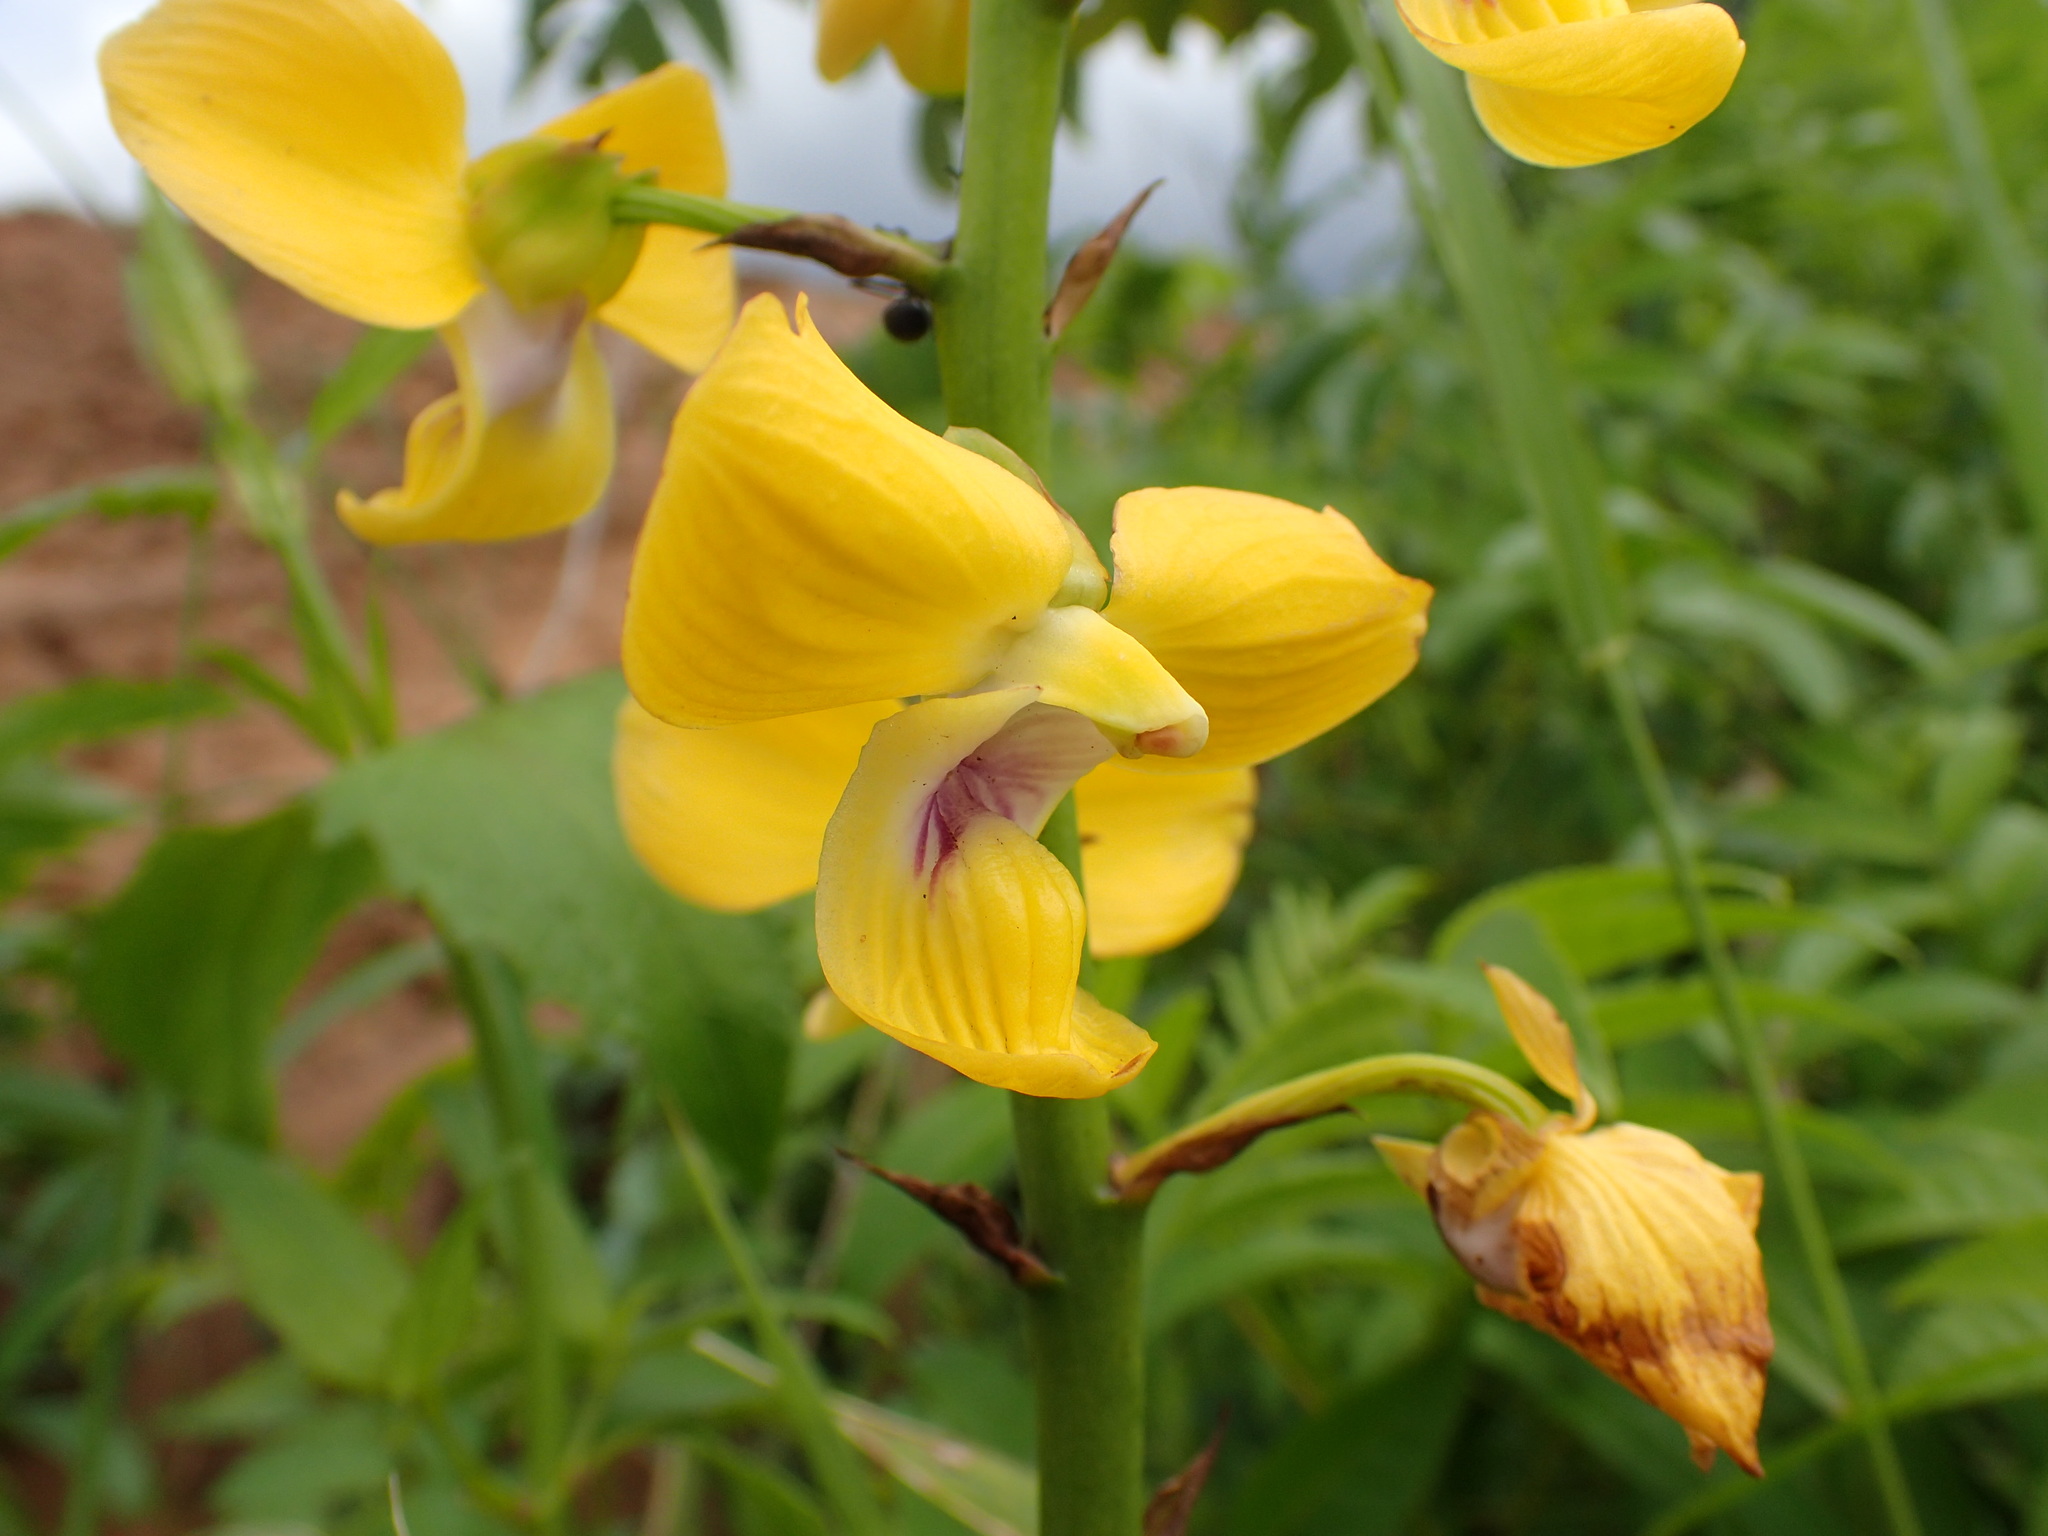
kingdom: Plantae
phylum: Tracheophyta
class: Liliopsida
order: Asparagales
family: Orchidaceae
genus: Eulophia
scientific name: Eulophia speciosa
